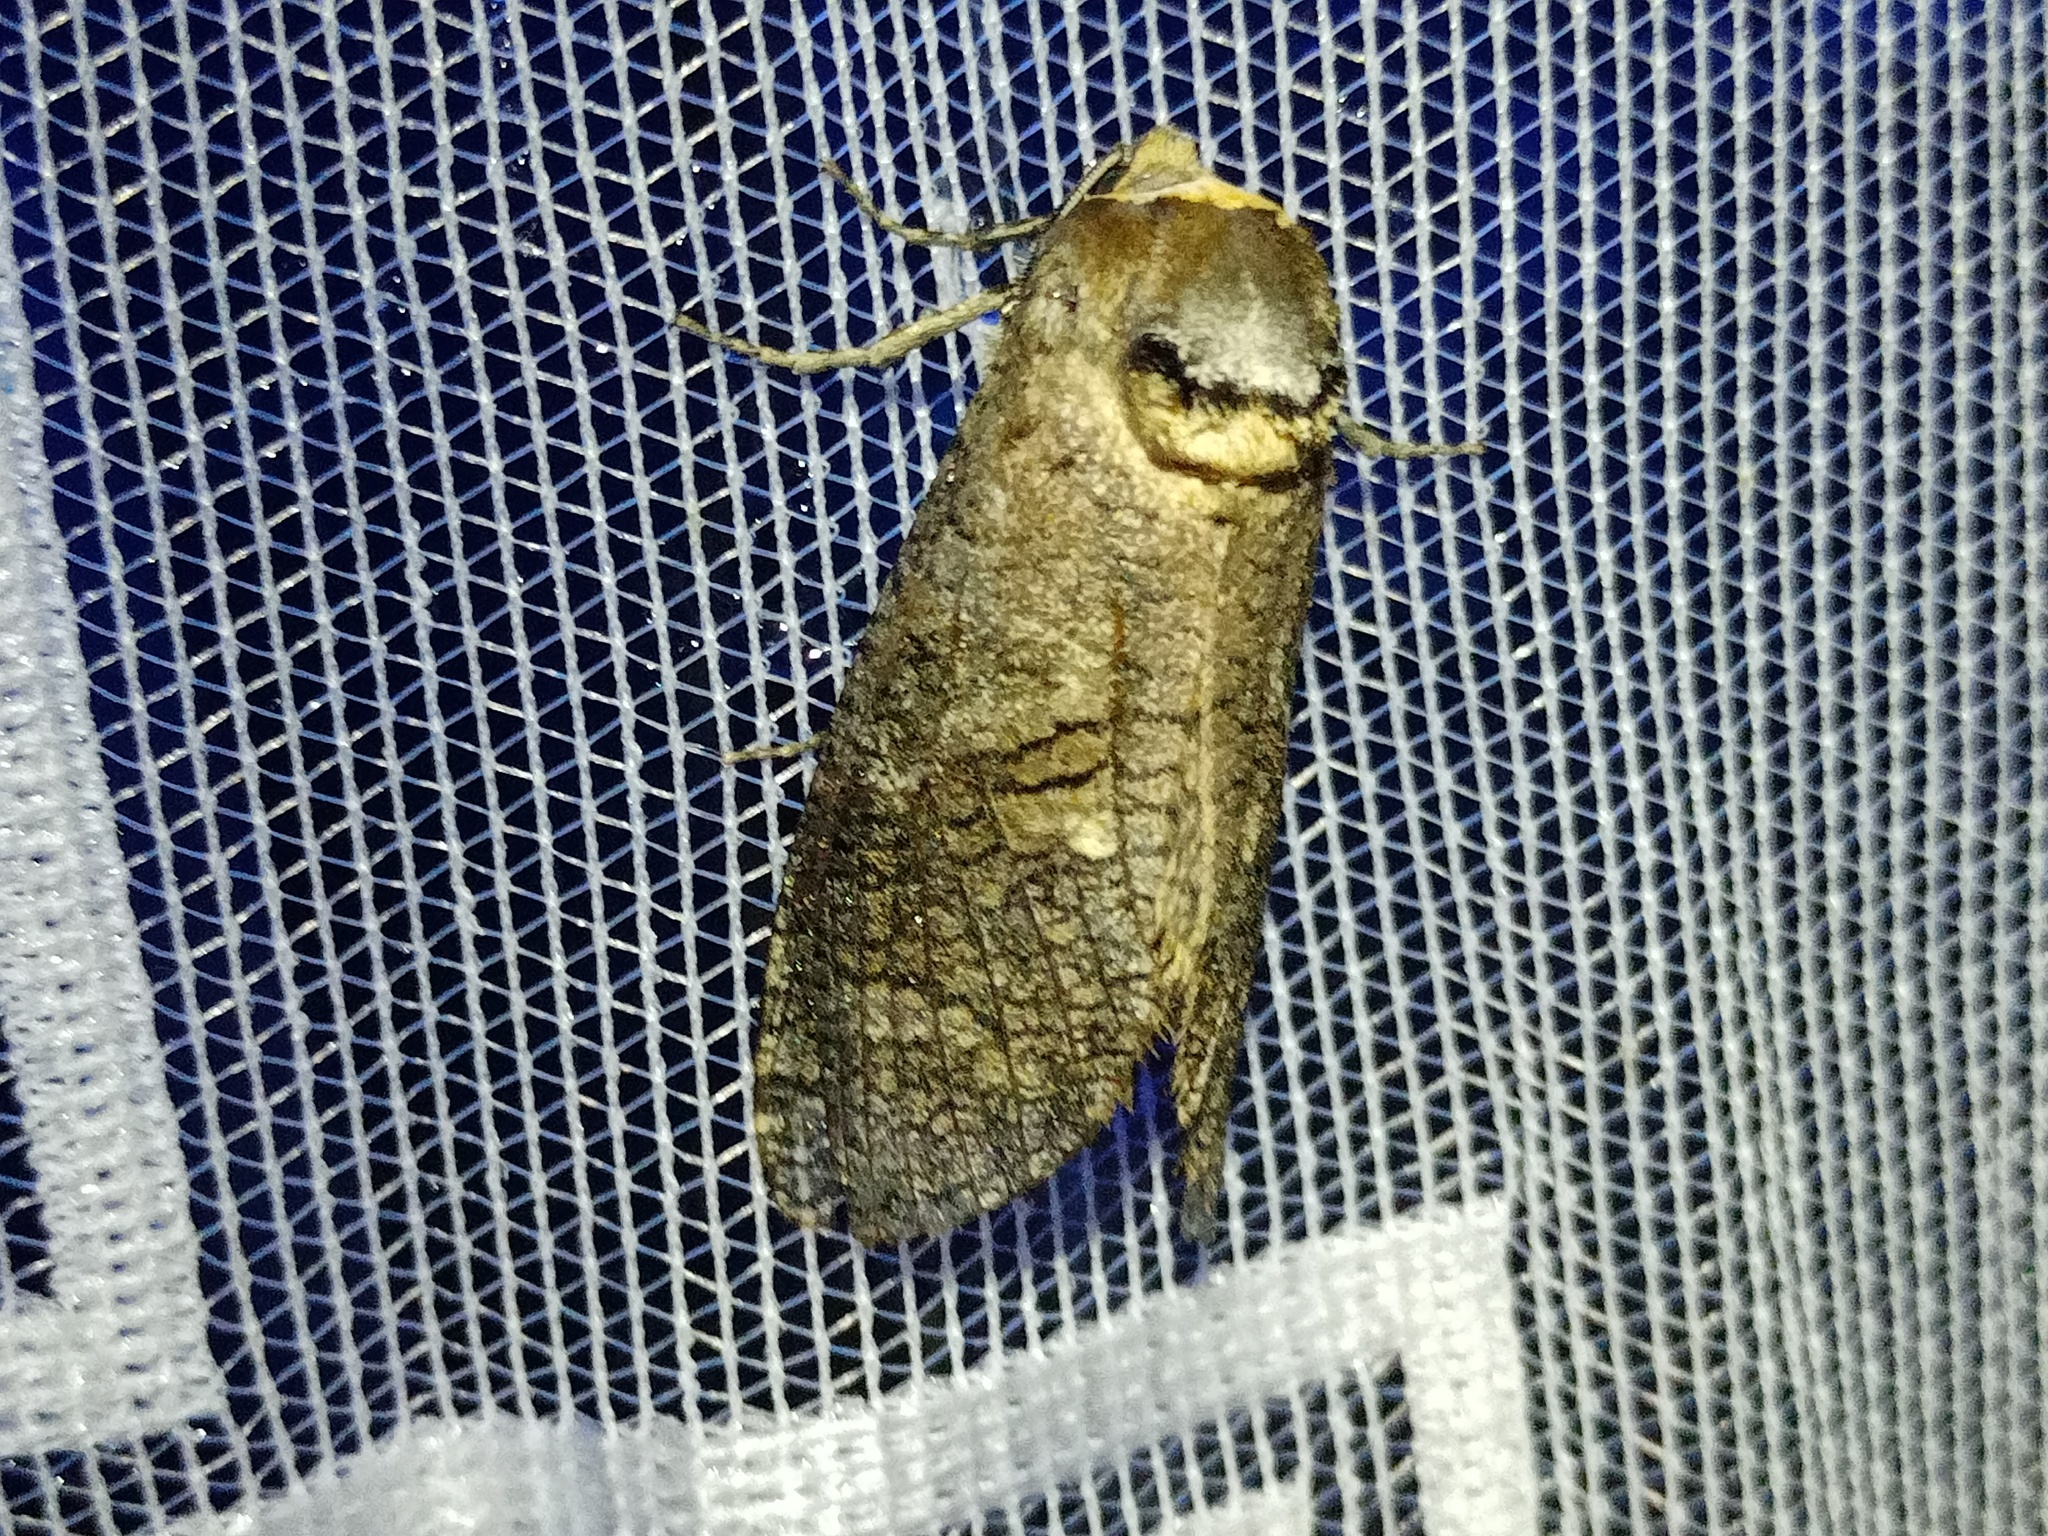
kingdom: Animalia
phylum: Arthropoda
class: Insecta
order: Lepidoptera
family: Cossidae
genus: Cossus
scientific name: Cossus cossus
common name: Goat moth
